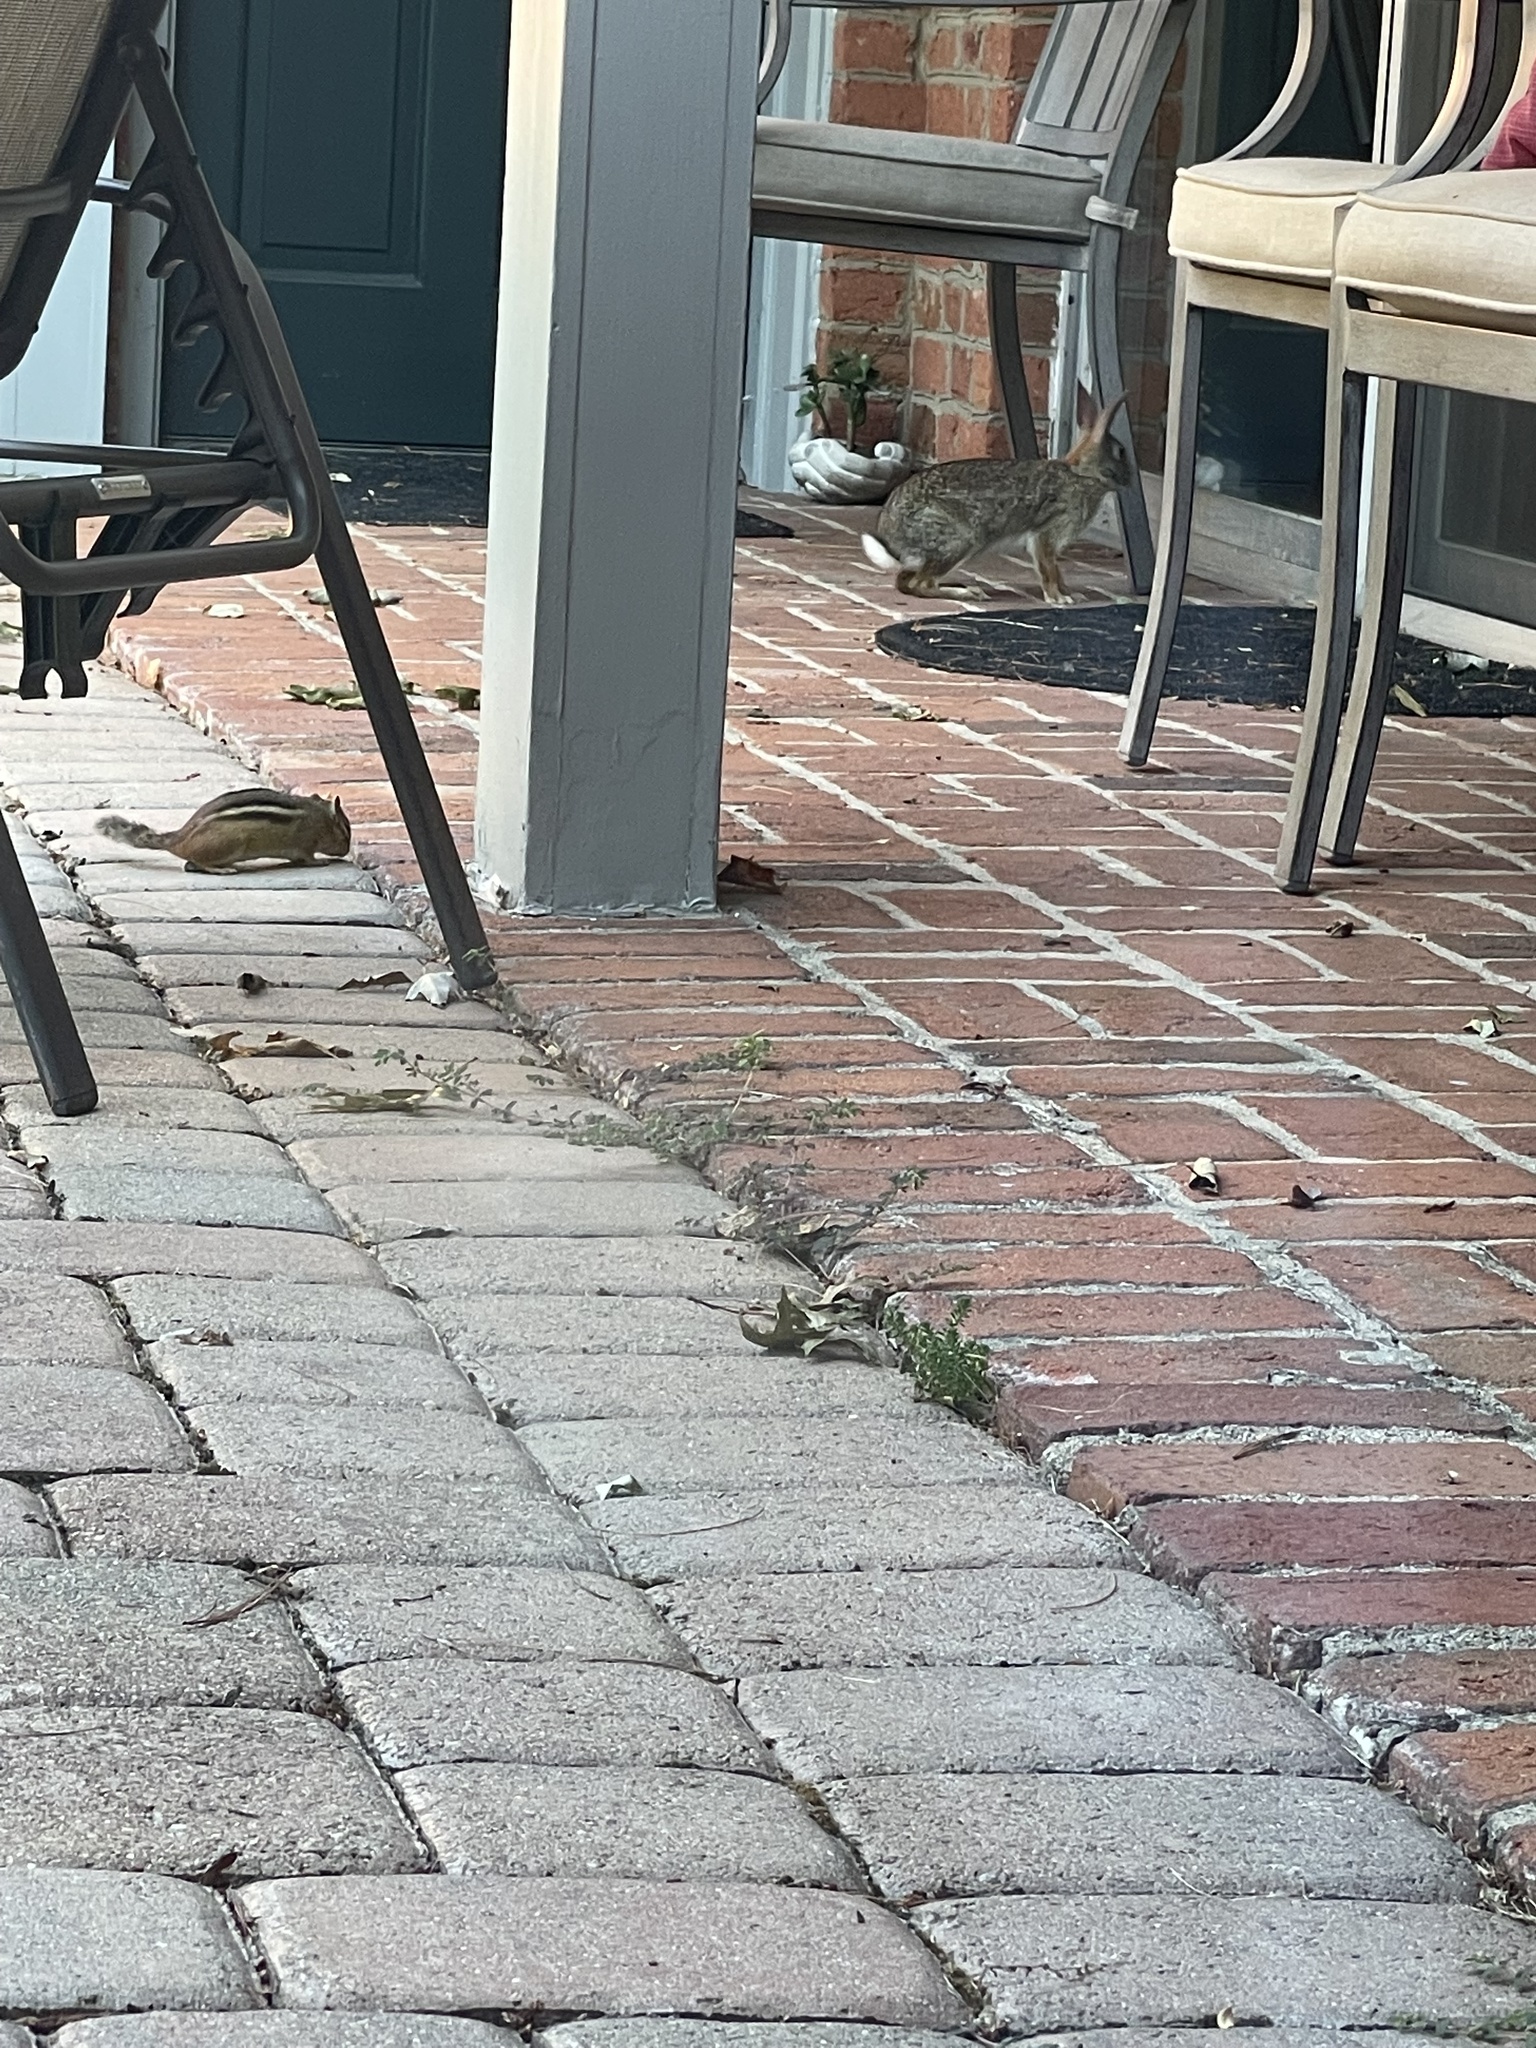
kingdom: Animalia
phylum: Chordata
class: Mammalia
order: Lagomorpha
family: Leporidae
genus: Sylvilagus
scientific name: Sylvilagus floridanus
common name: Eastern cottontail
